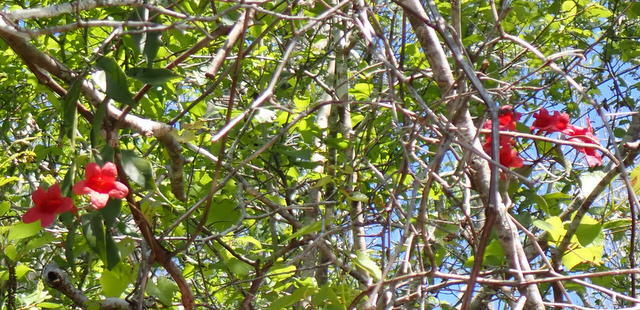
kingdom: Plantae
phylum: Tracheophyta
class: Magnoliopsida
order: Lamiales
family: Bignoniaceae
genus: Bignonia
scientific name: Bignonia capreolata
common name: Crossvine
